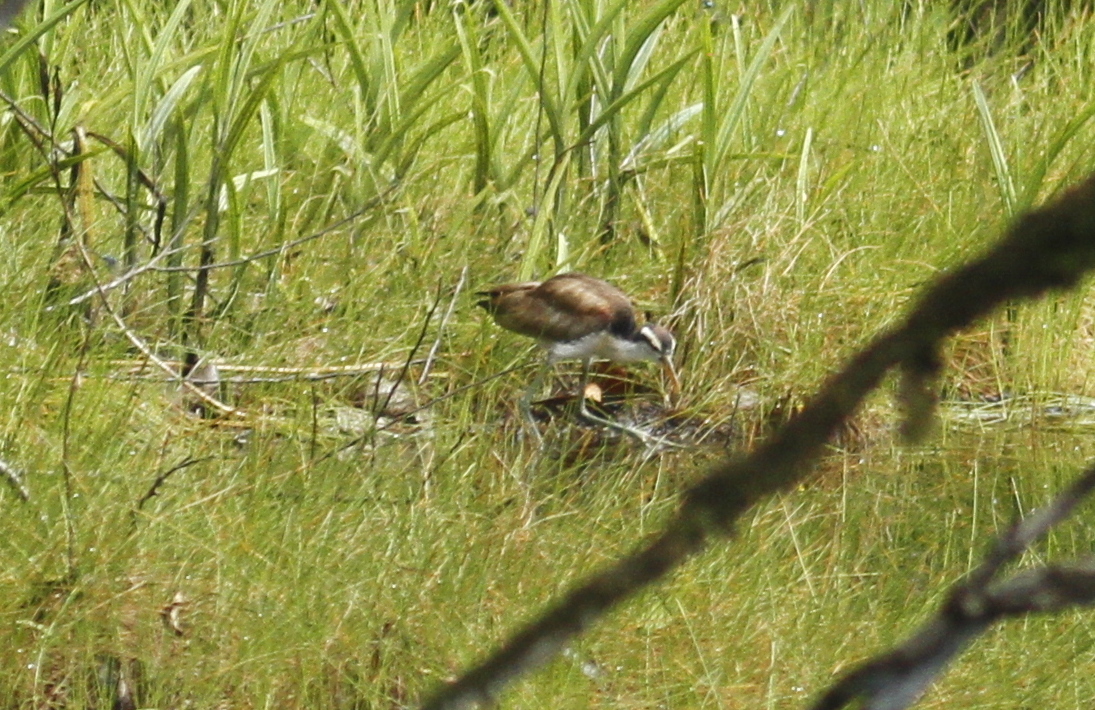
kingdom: Animalia
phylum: Chordata
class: Aves
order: Charadriiformes
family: Jacanidae
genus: Jacana
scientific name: Jacana jacana
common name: Wattled jacana
